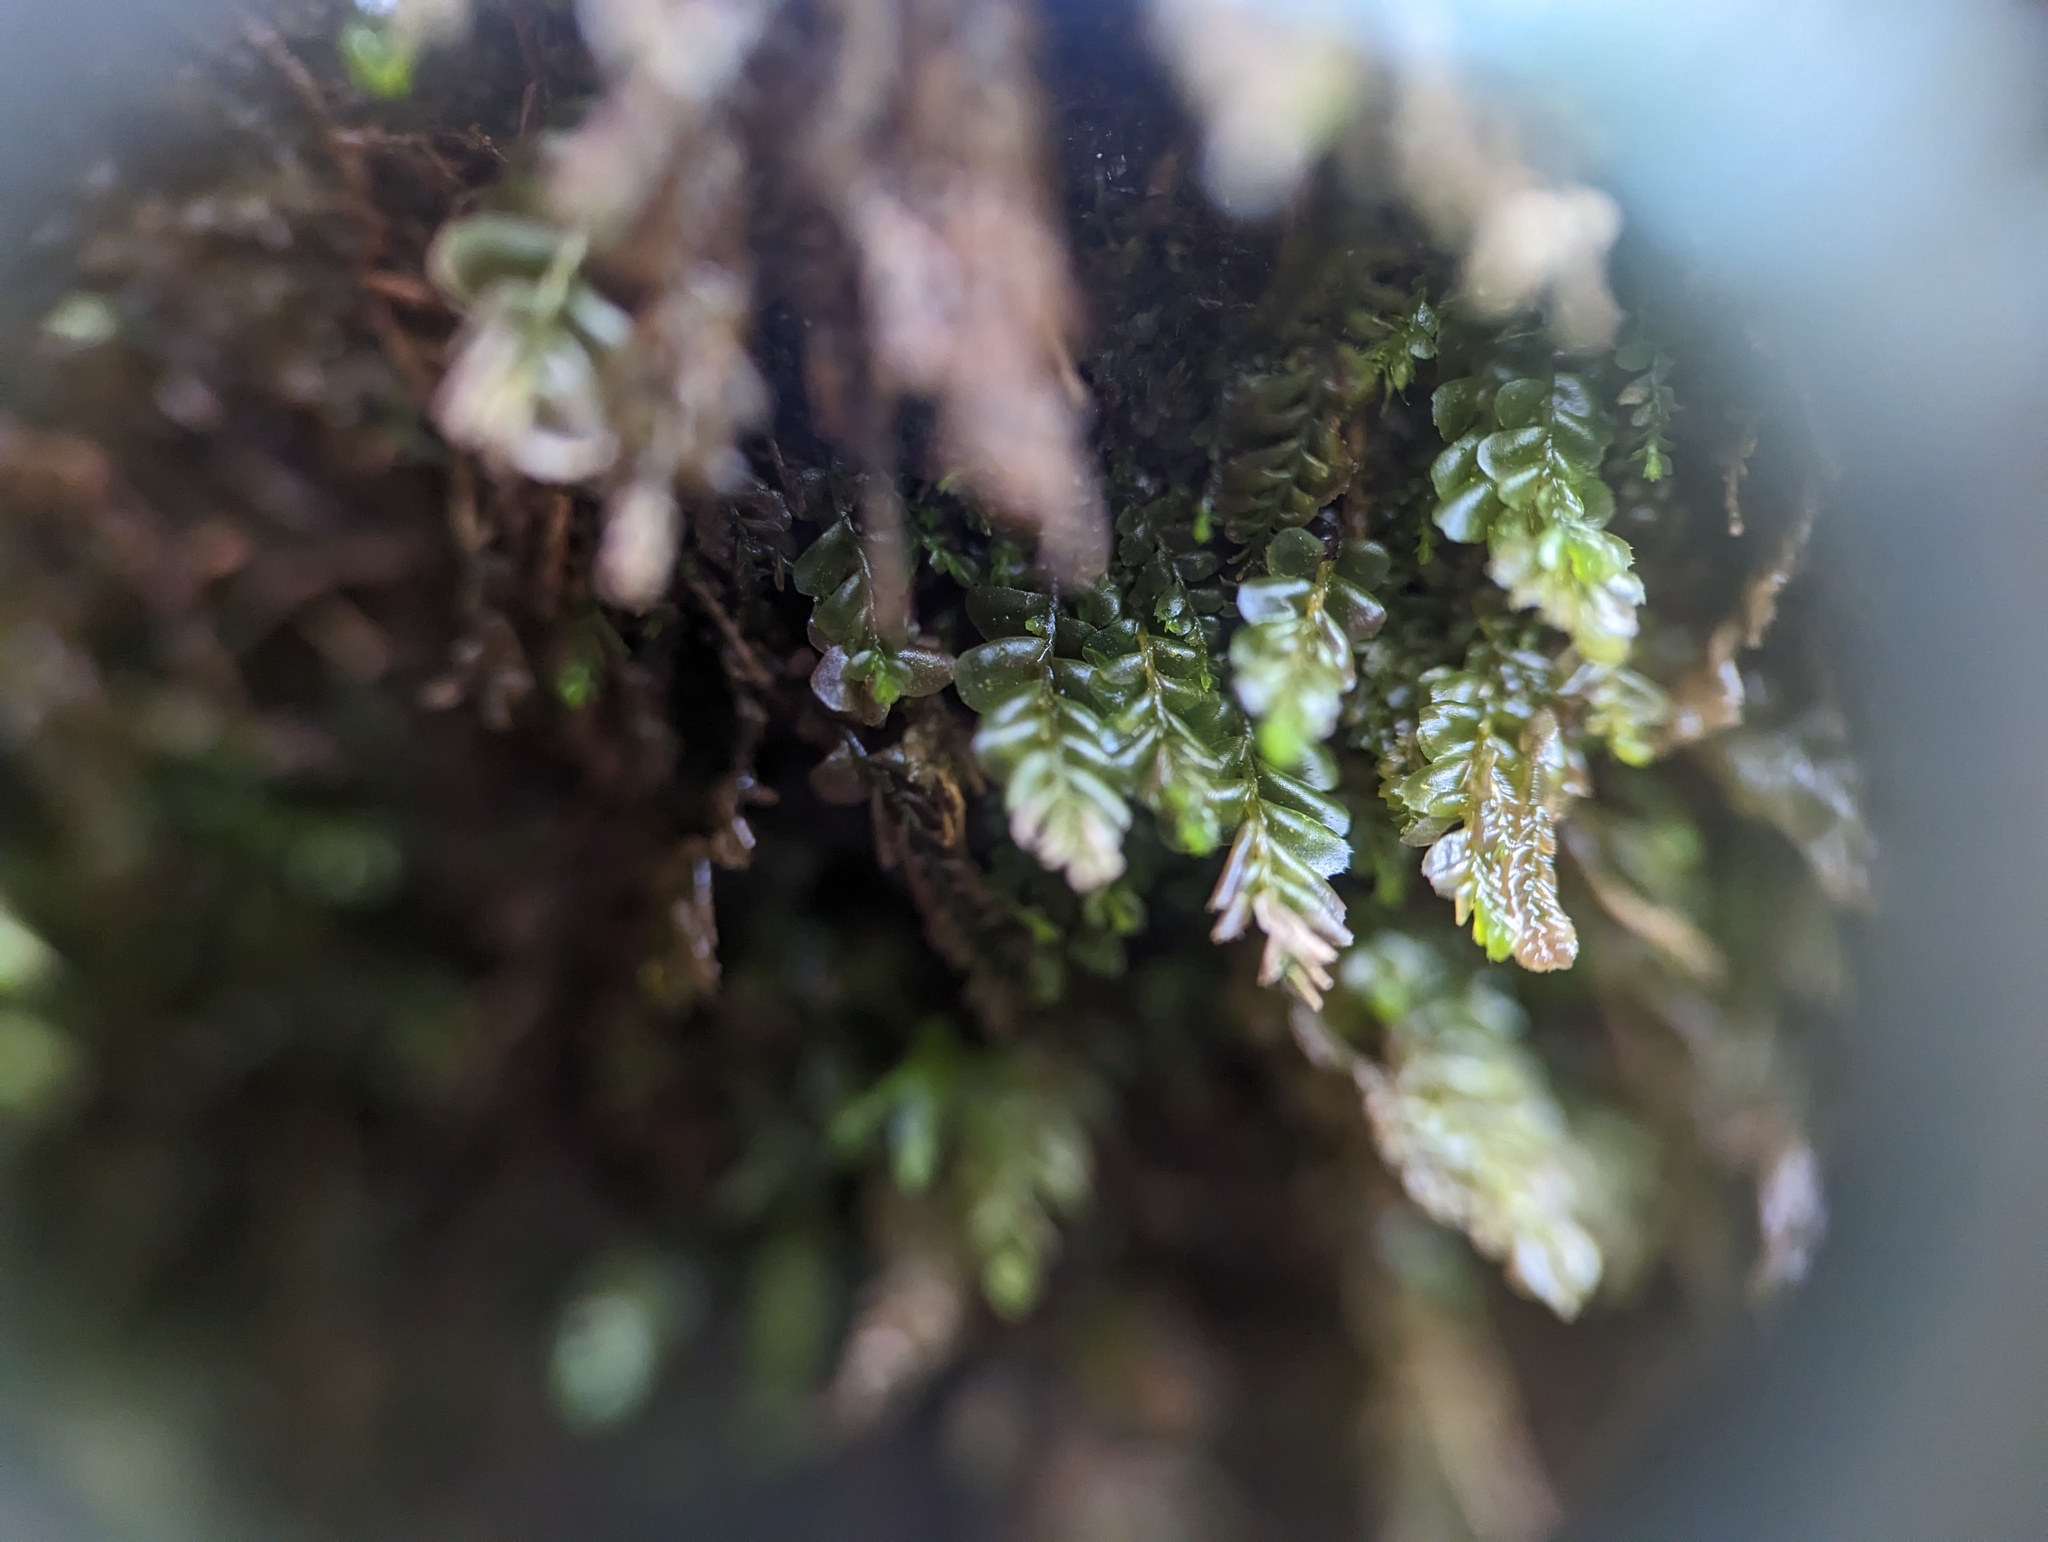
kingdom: Plantae
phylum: Marchantiophyta
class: Jungermanniopsida
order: Jungermanniales
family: Plagiochilaceae
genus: Plagiochila
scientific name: Plagiochila porelloides
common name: Lesser featherwort
